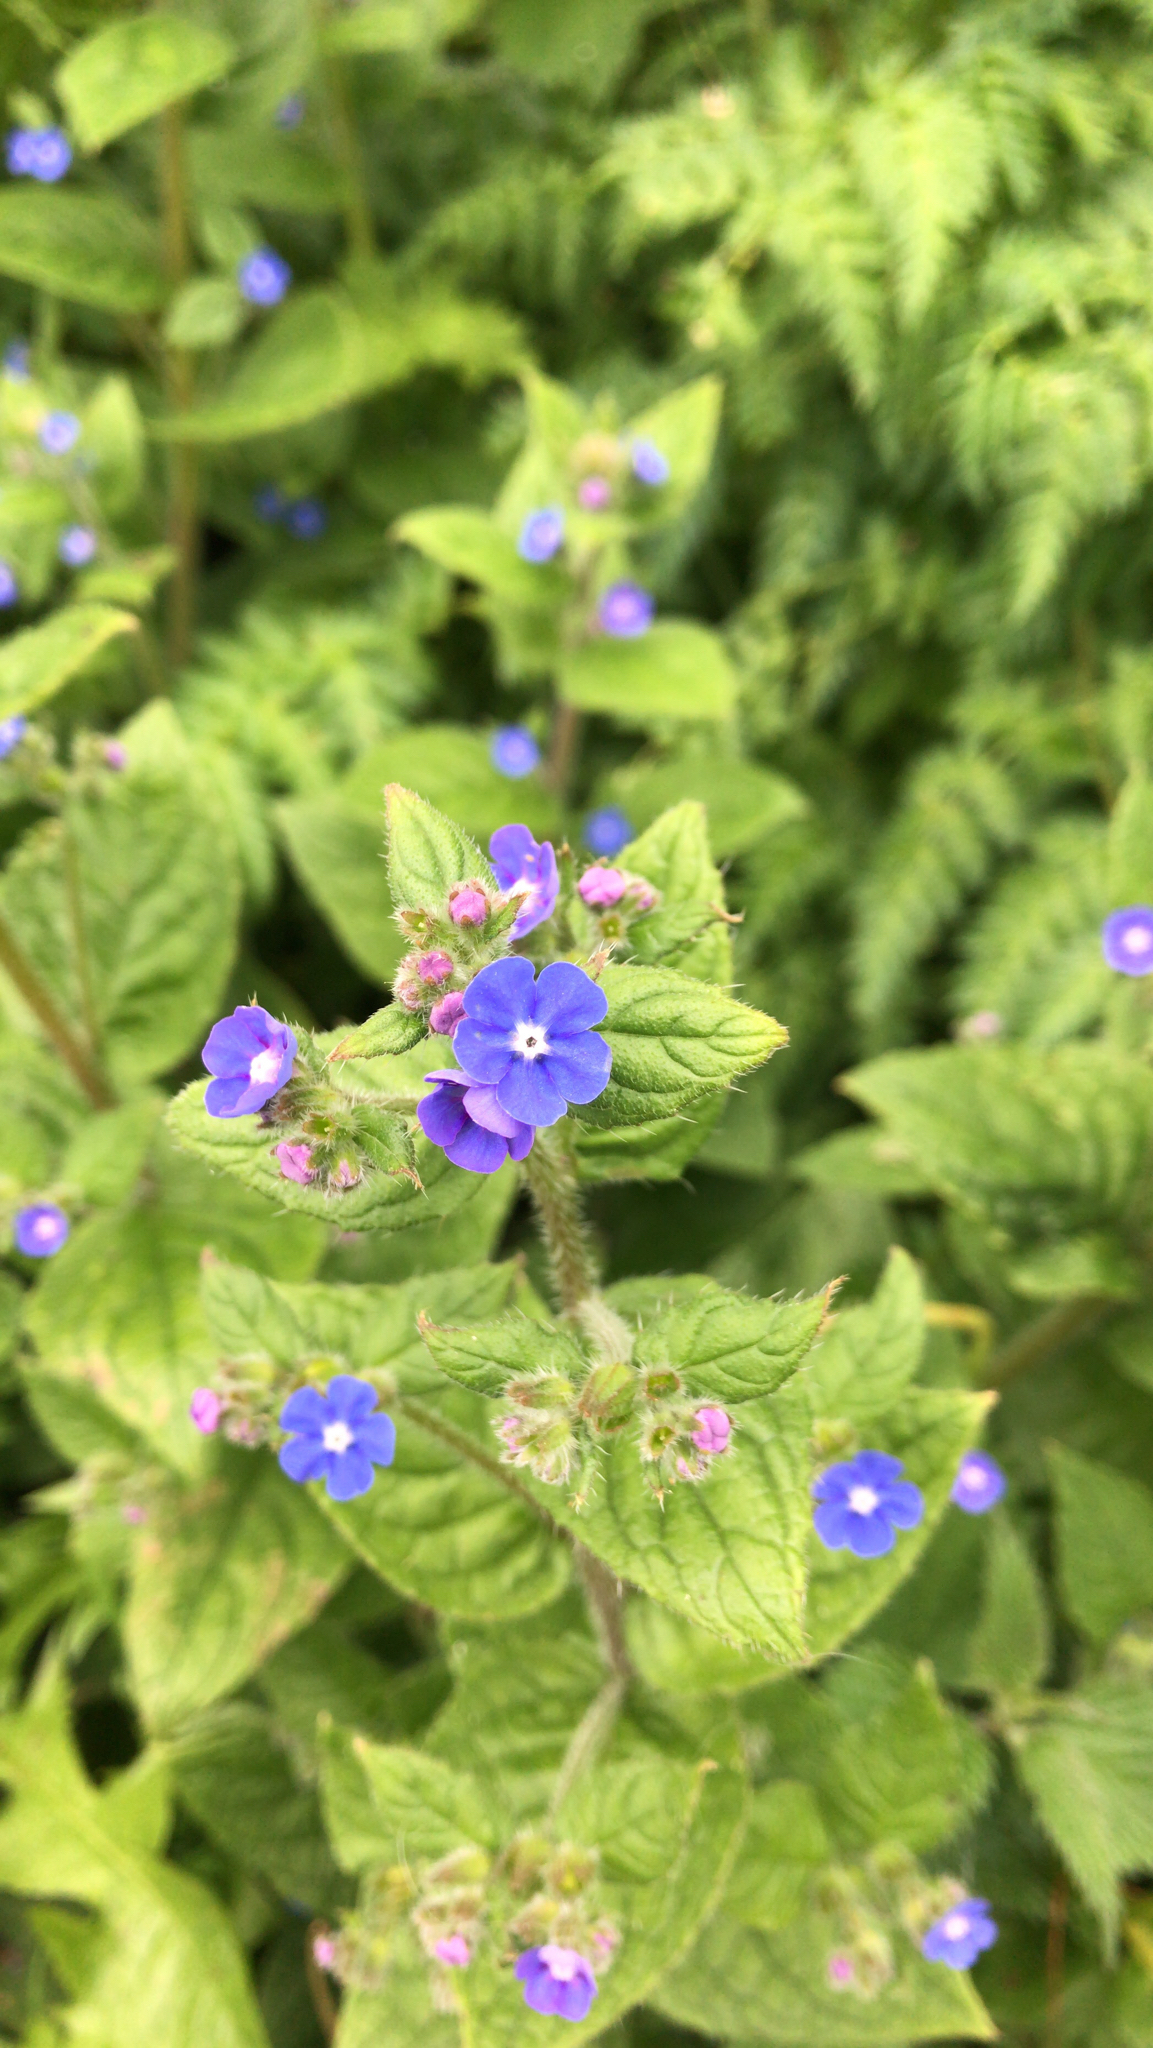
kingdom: Plantae
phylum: Tracheophyta
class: Magnoliopsida
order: Boraginales
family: Boraginaceae
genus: Pentaglottis
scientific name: Pentaglottis sempervirens
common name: Green alkanet
